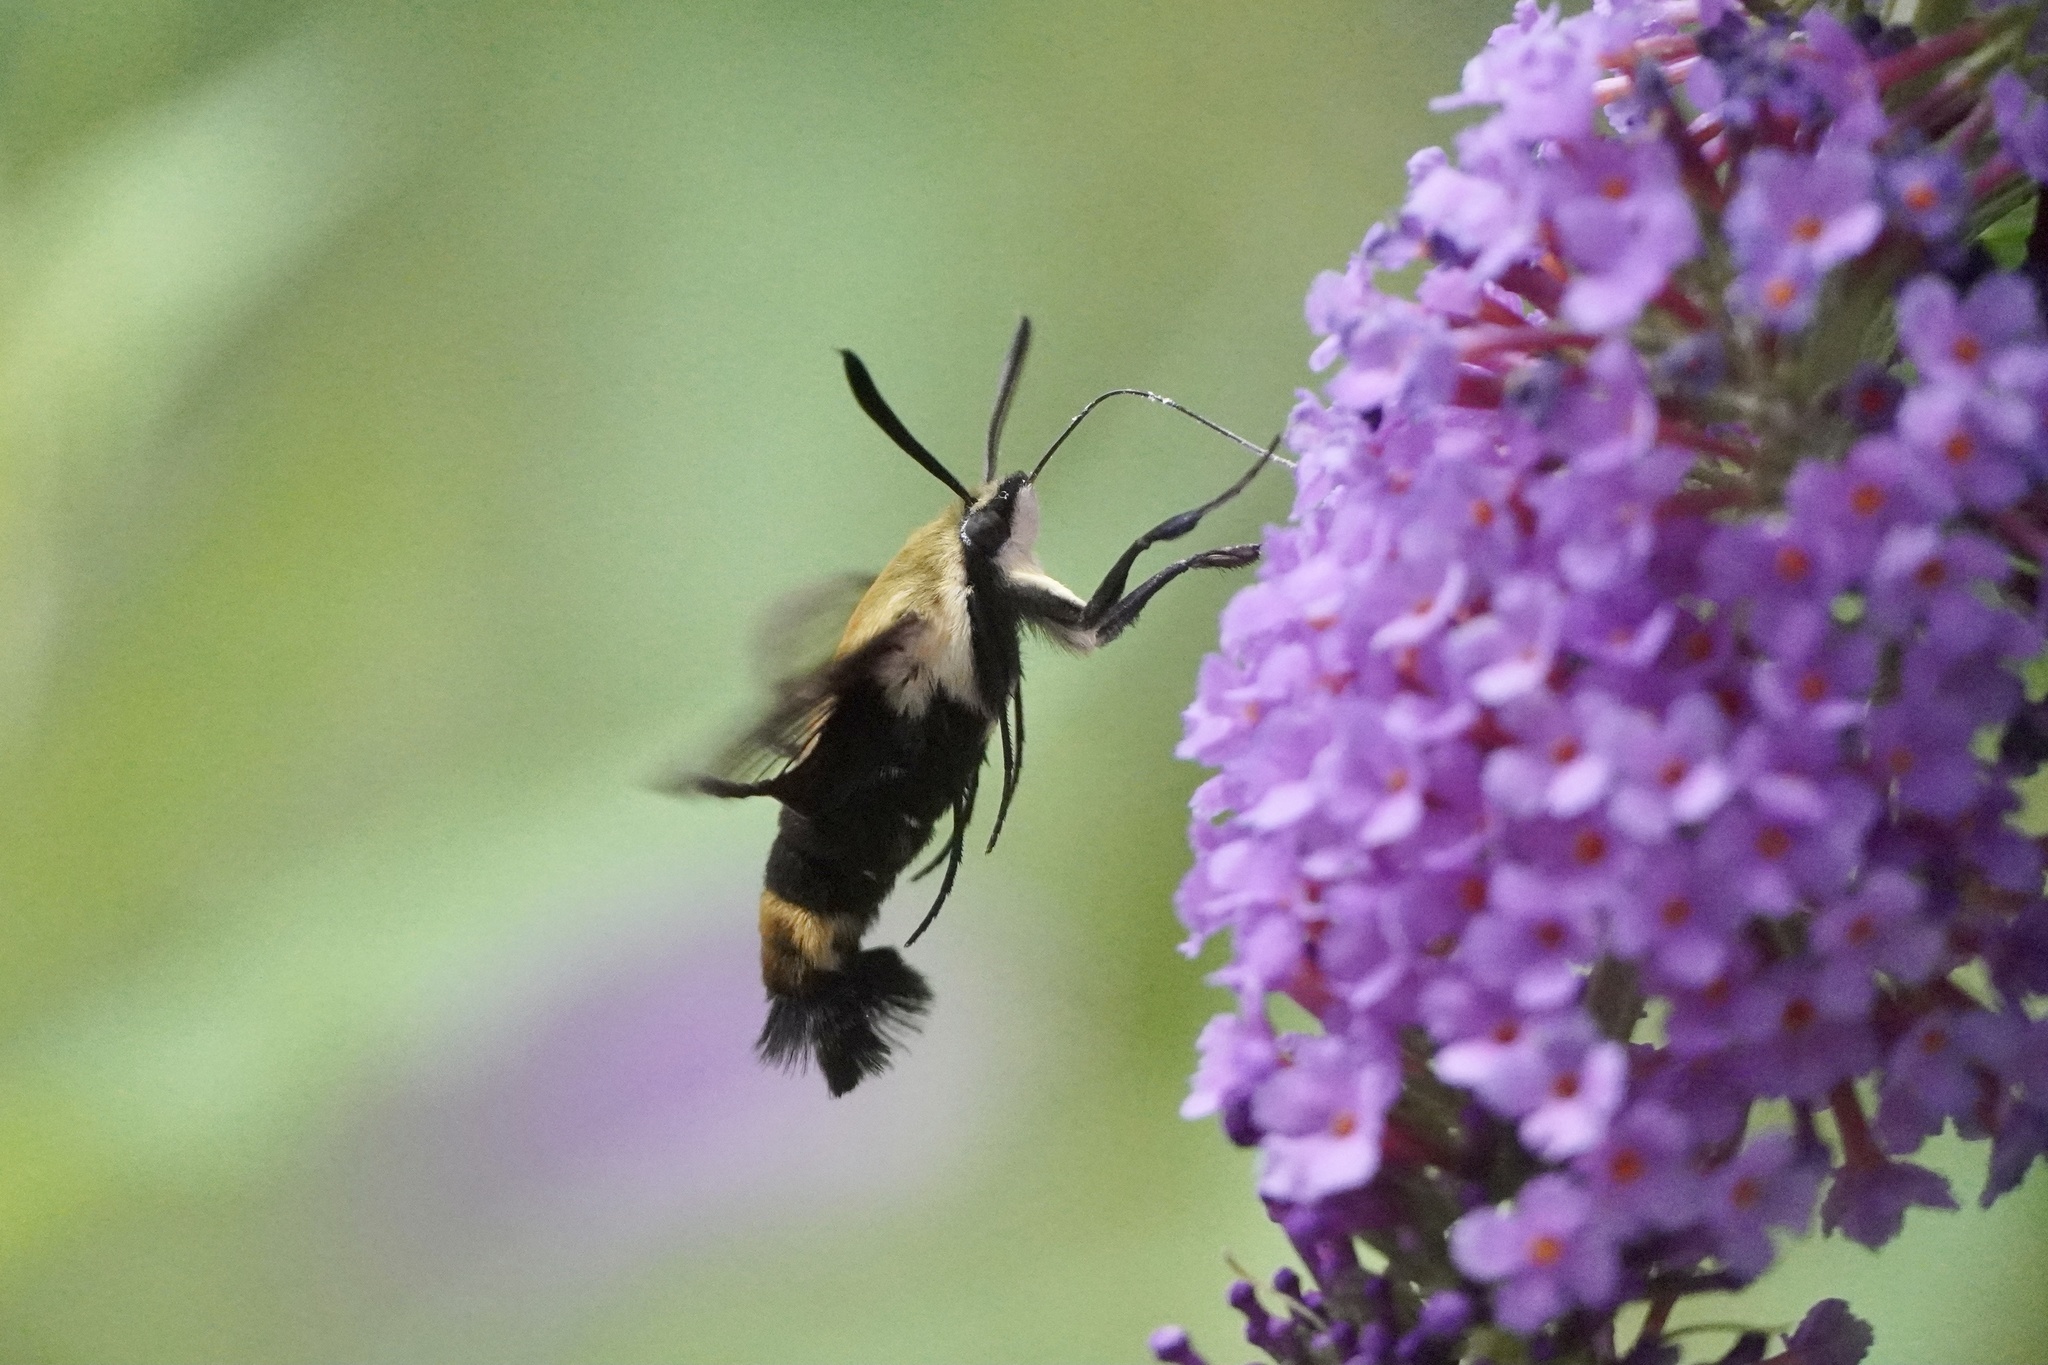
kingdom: Animalia
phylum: Arthropoda
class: Insecta
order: Lepidoptera
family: Sphingidae
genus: Hemaris
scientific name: Hemaris diffinis
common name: Bumblebee moth
